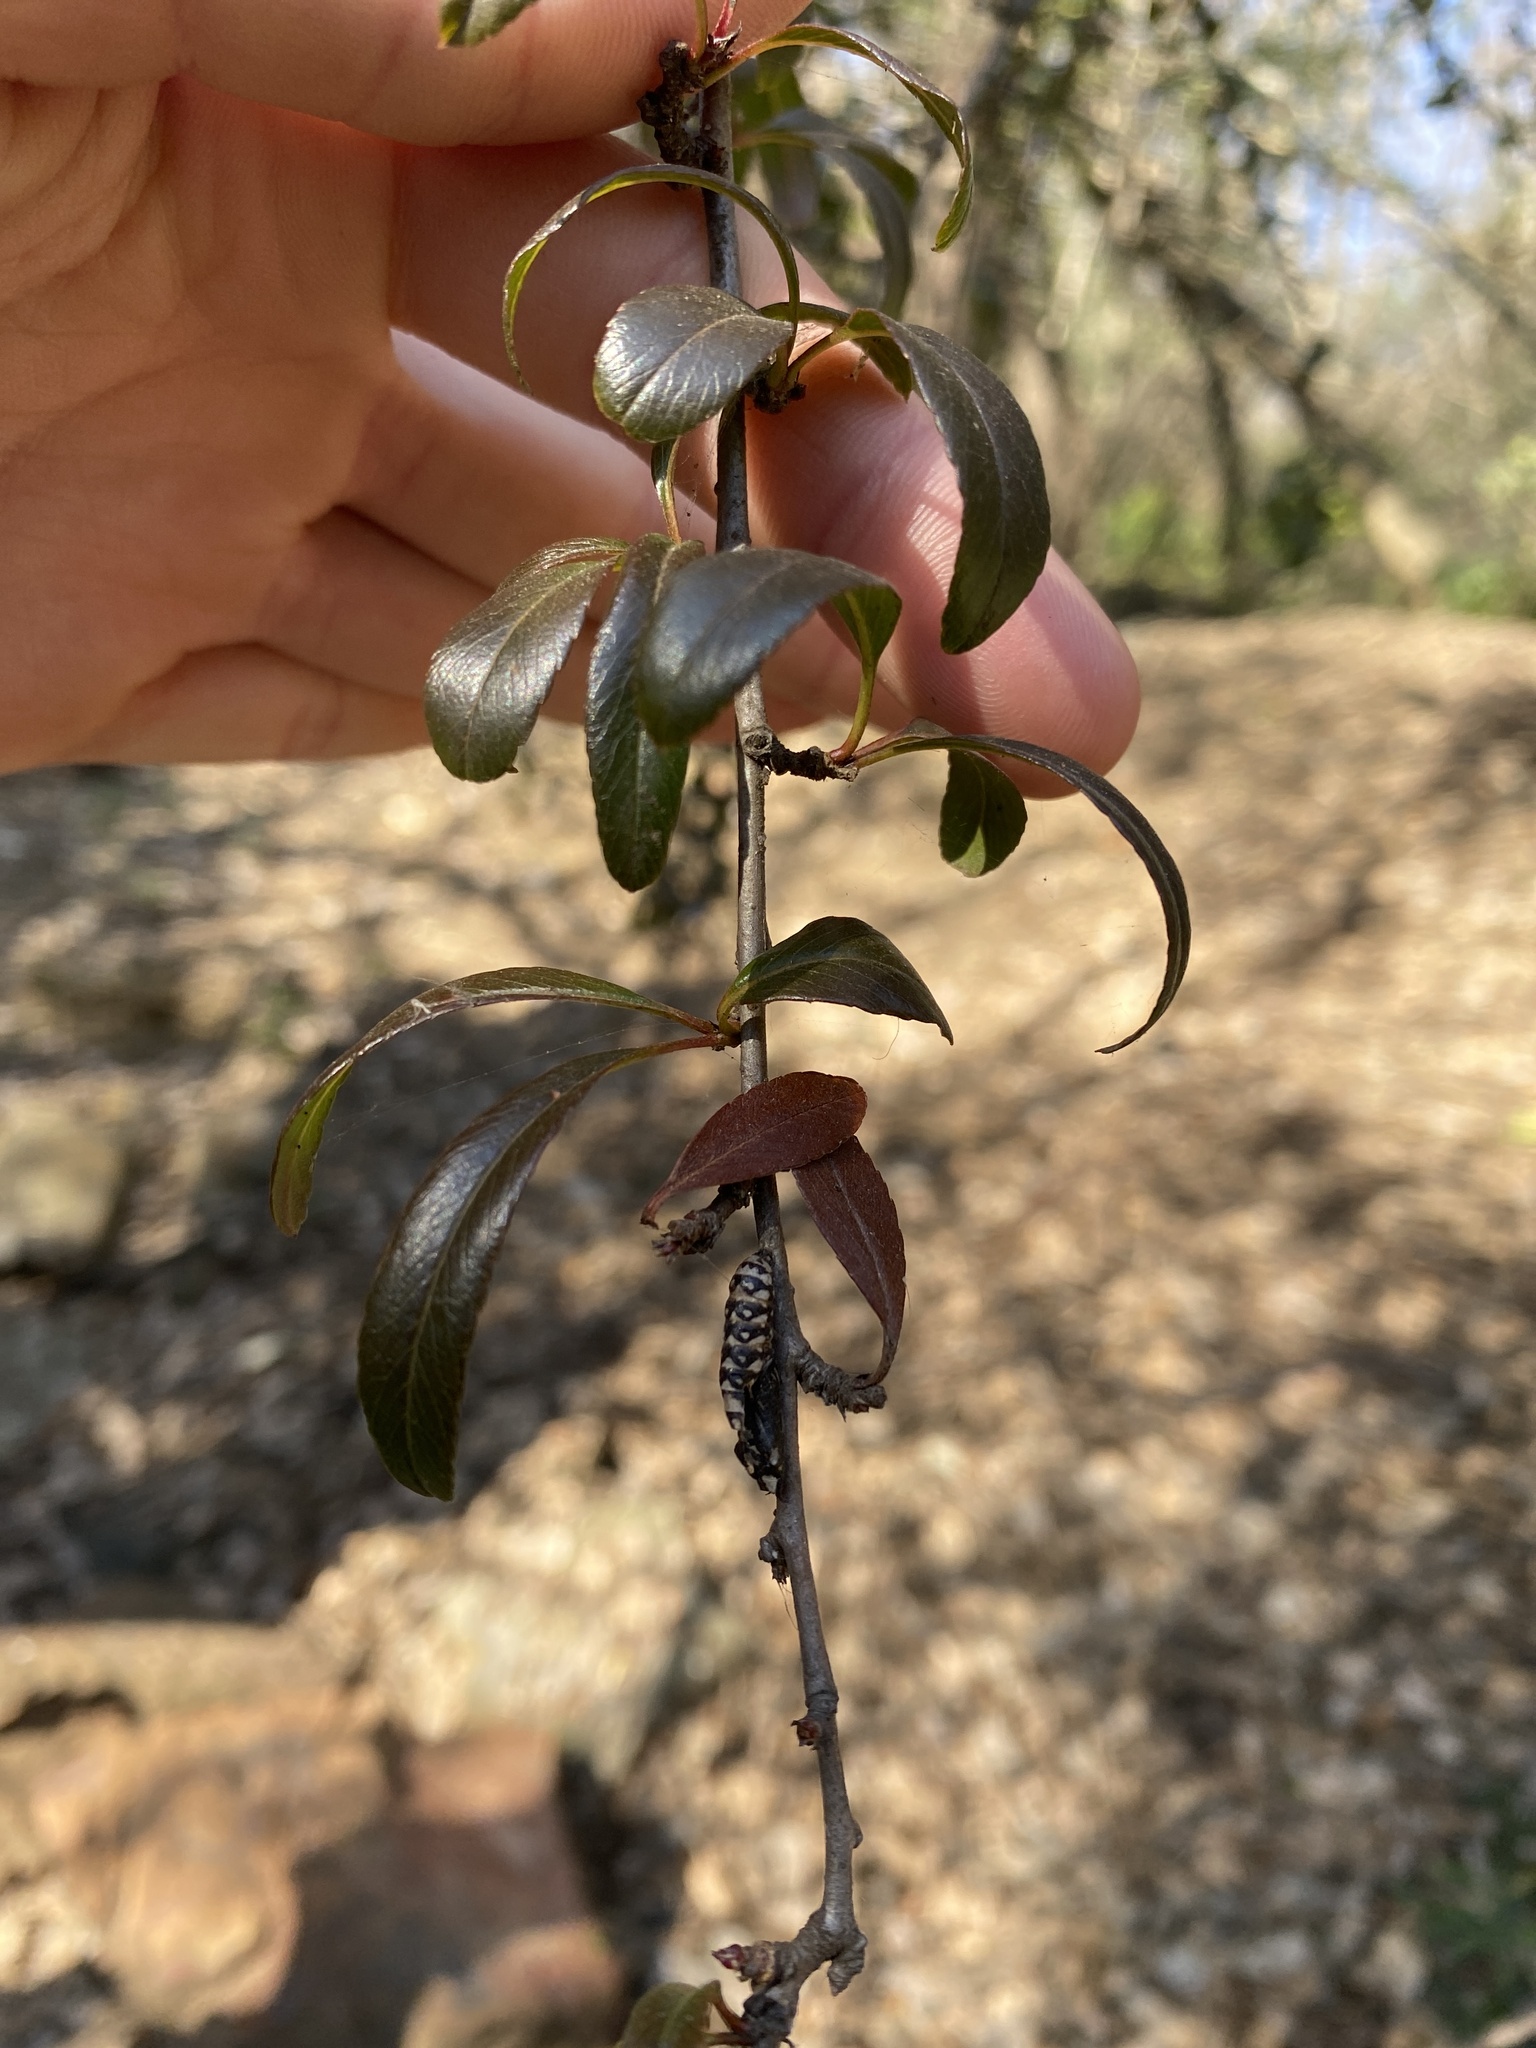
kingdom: Animalia
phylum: Arthropoda
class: Insecta
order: Lepidoptera
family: Nymphalidae
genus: Acraea
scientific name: Acraea horta
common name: Garden acraea
